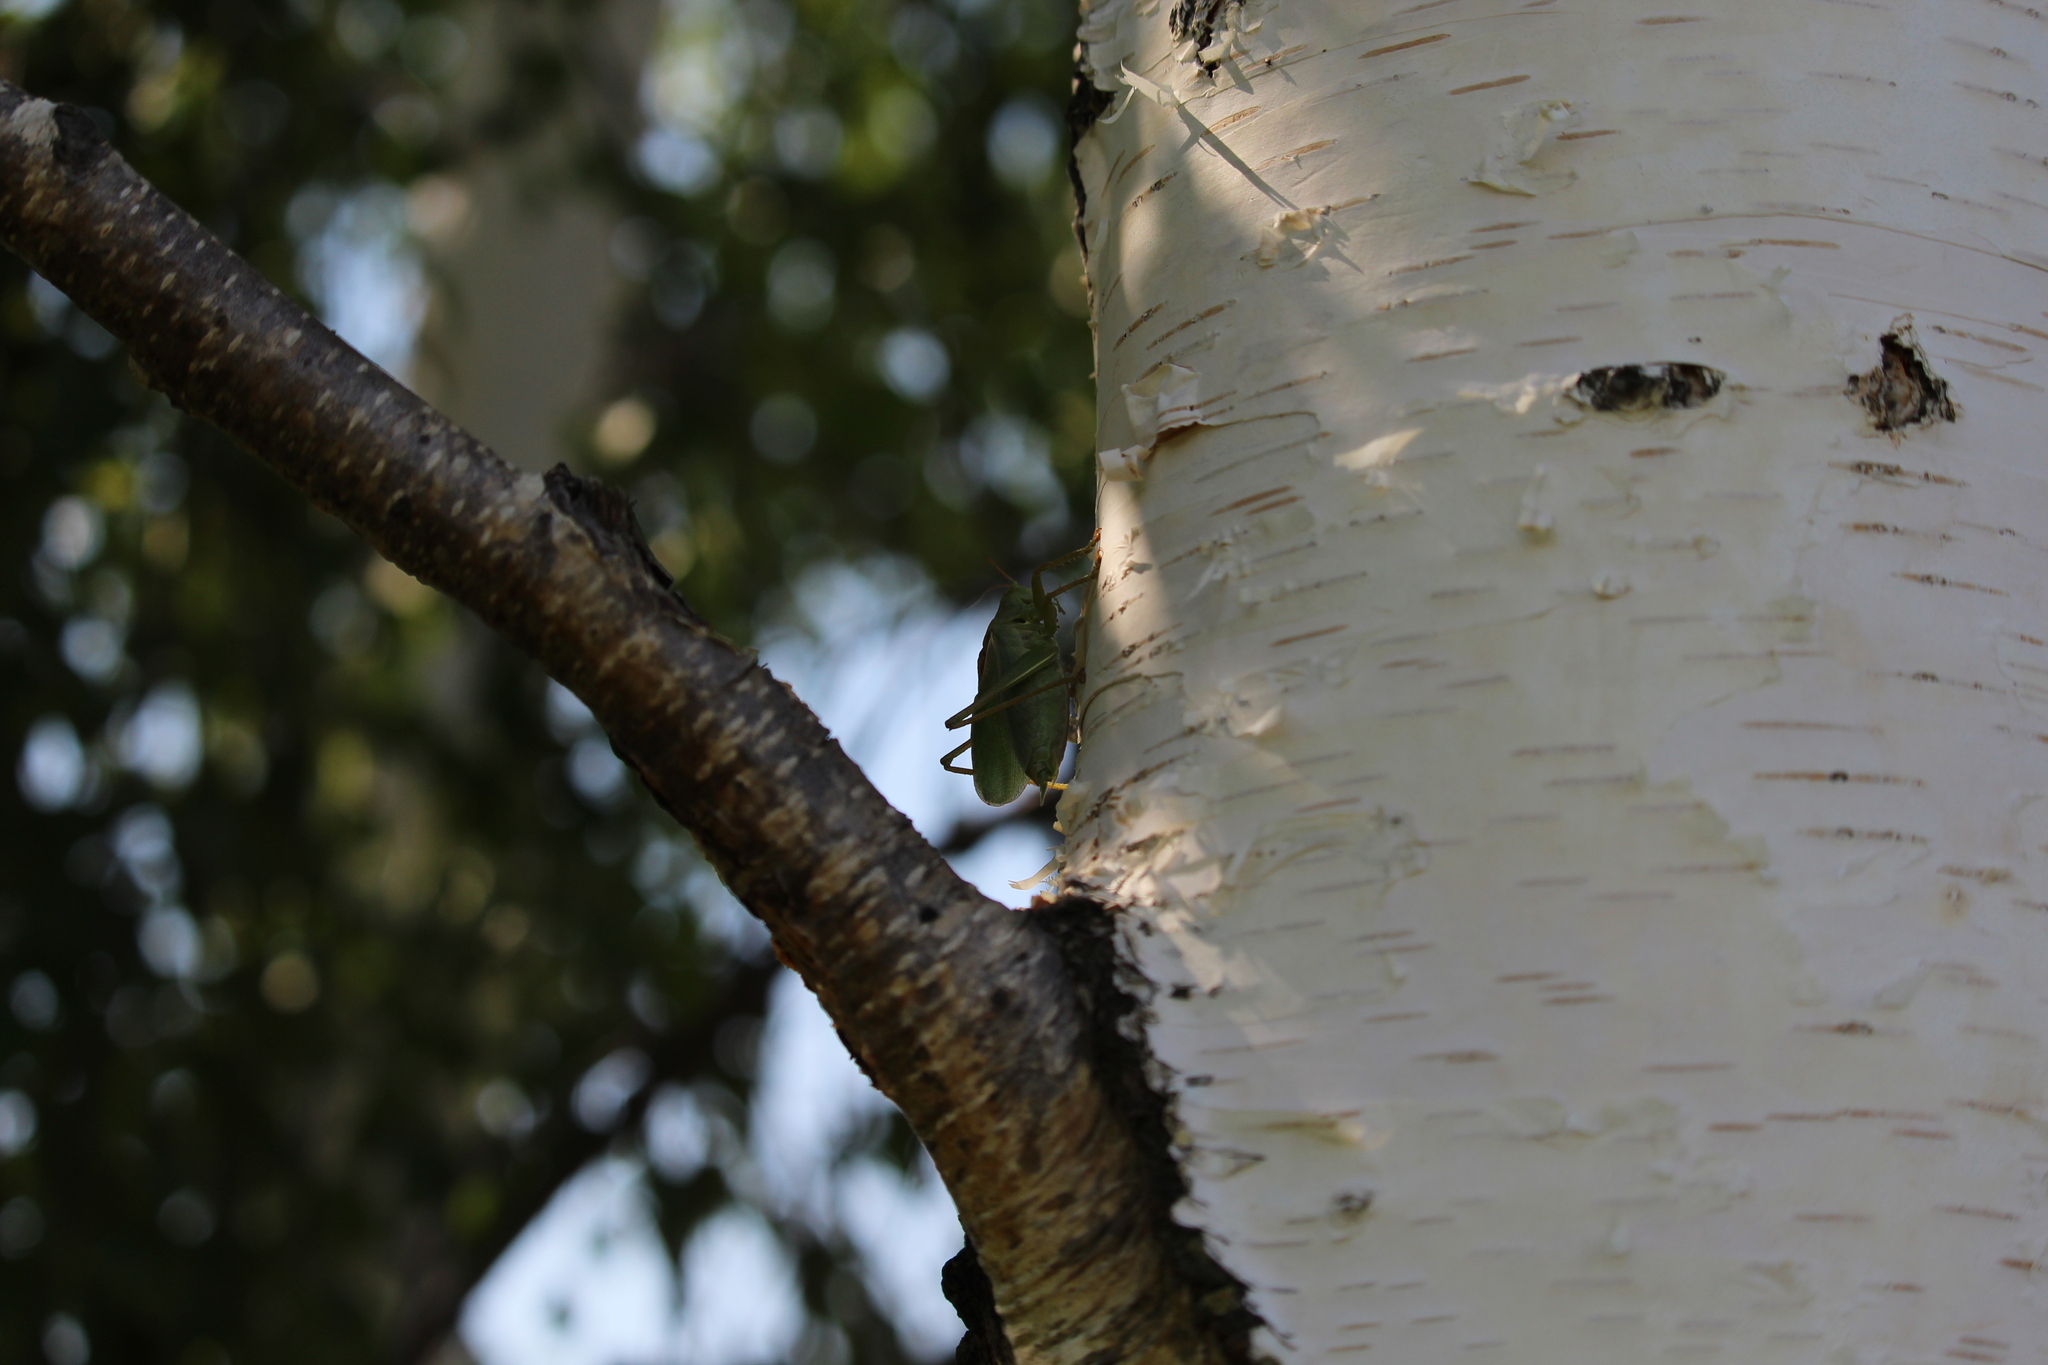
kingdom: Animalia
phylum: Arthropoda
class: Insecta
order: Orthoptera
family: Tettigoniidae
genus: Tettigonia
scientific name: Tettigonia cantans
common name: Upland green bush-cricket
